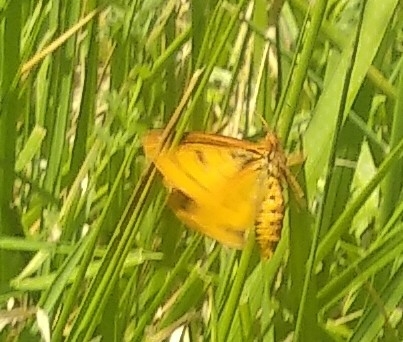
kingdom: Animalia
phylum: Arthropoda
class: Insecta
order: Lepidoptera
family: Erebidae
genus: Diacrisia
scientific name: Diacrisia sannio
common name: Clouded buff
